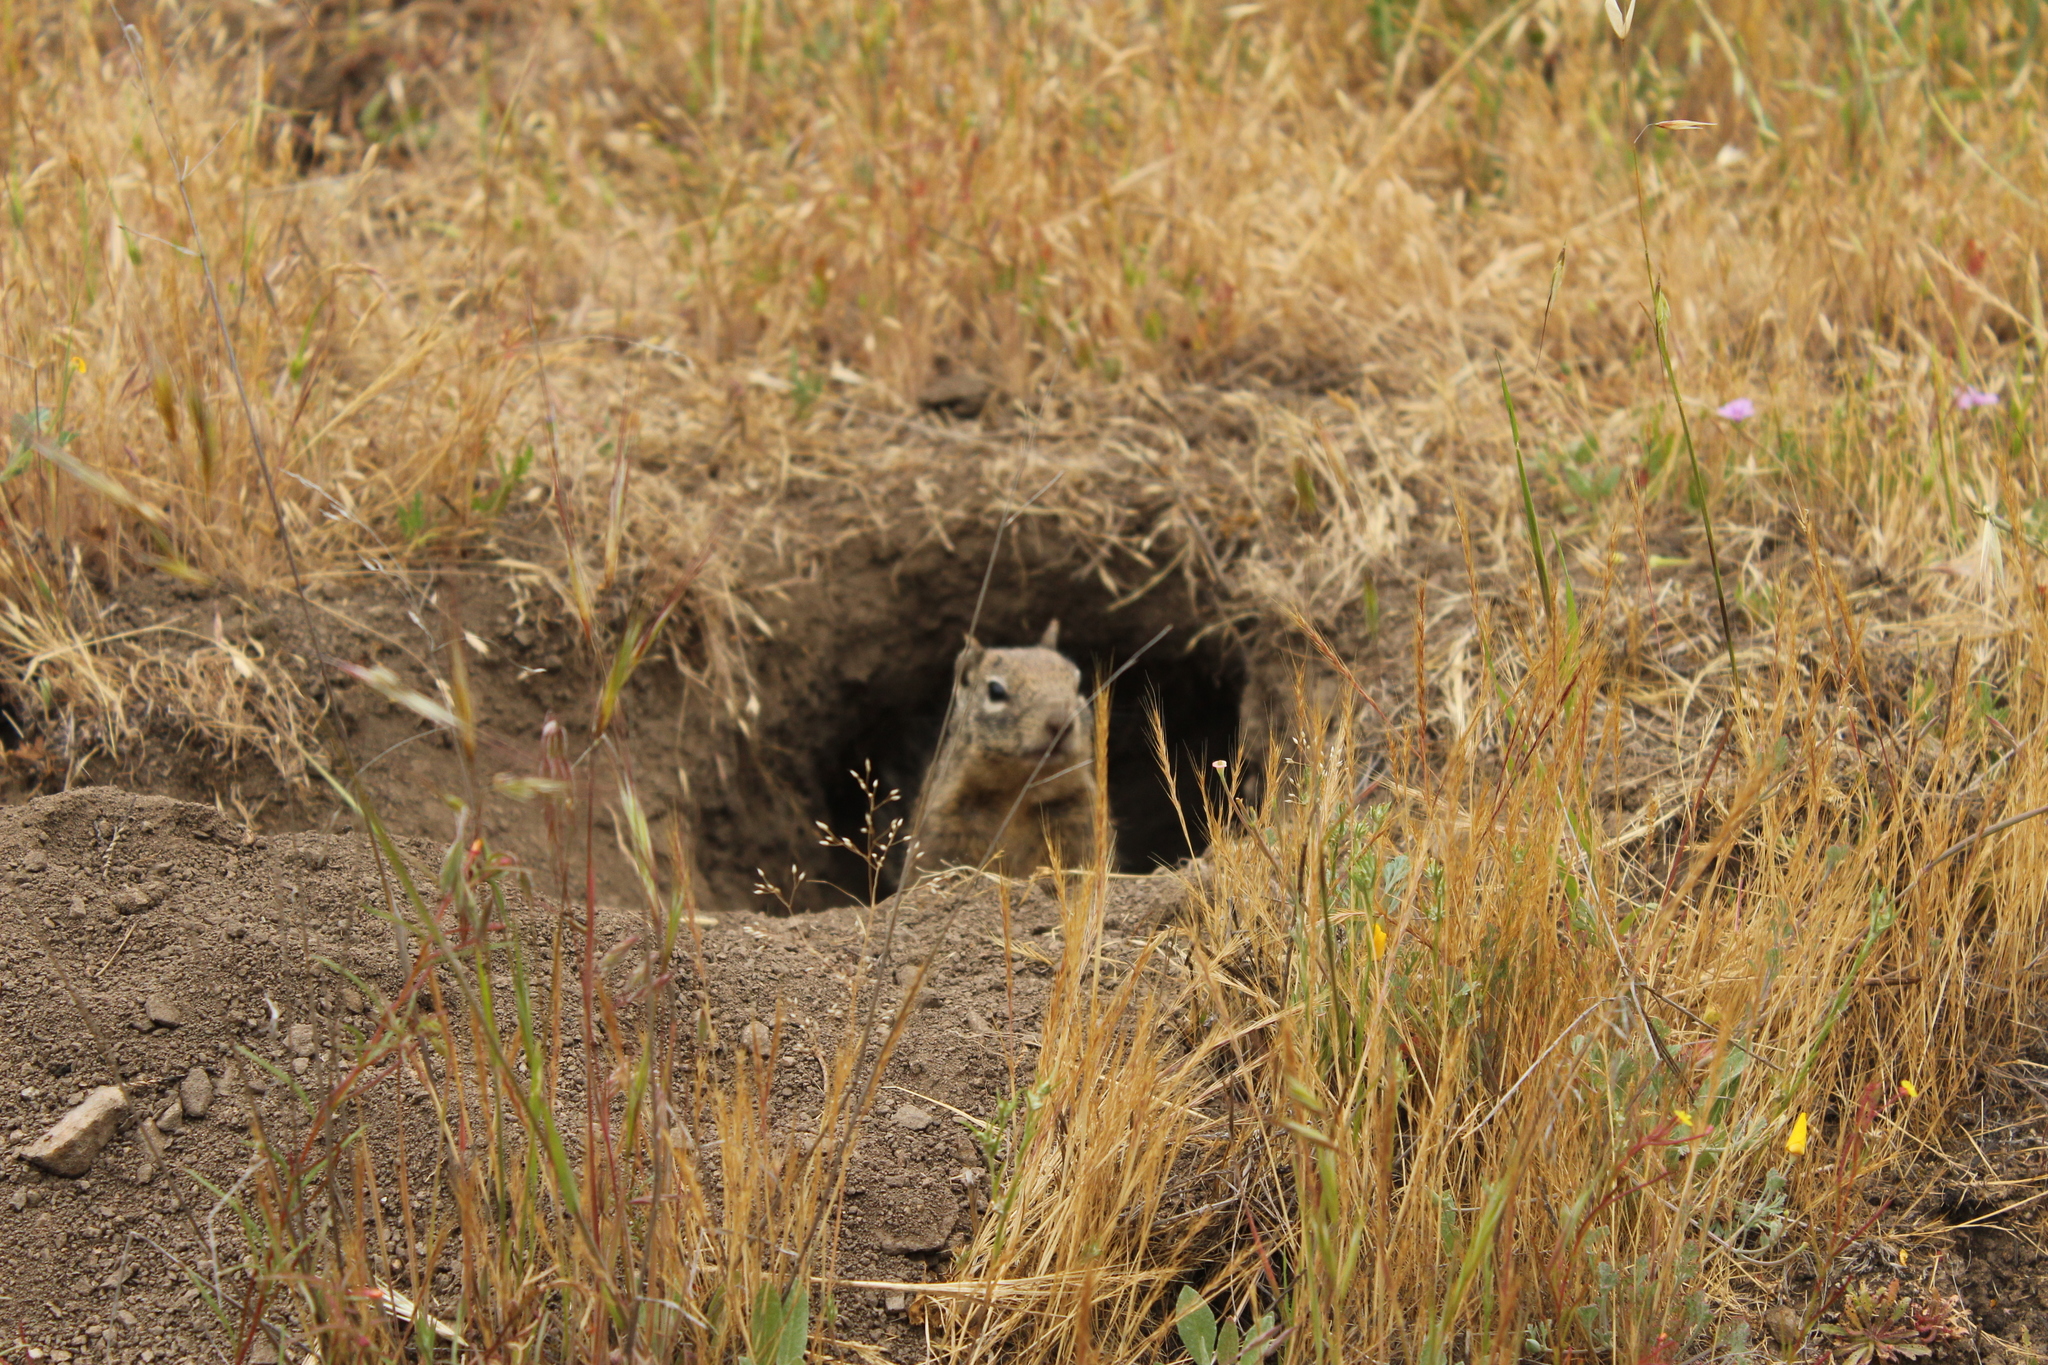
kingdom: Animalia
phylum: Chordata
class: Mammalia
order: Rodentia
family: Sciuridae
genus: Otospermophilus
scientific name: Otospermophilus beecheyi
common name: California ground squirrel
